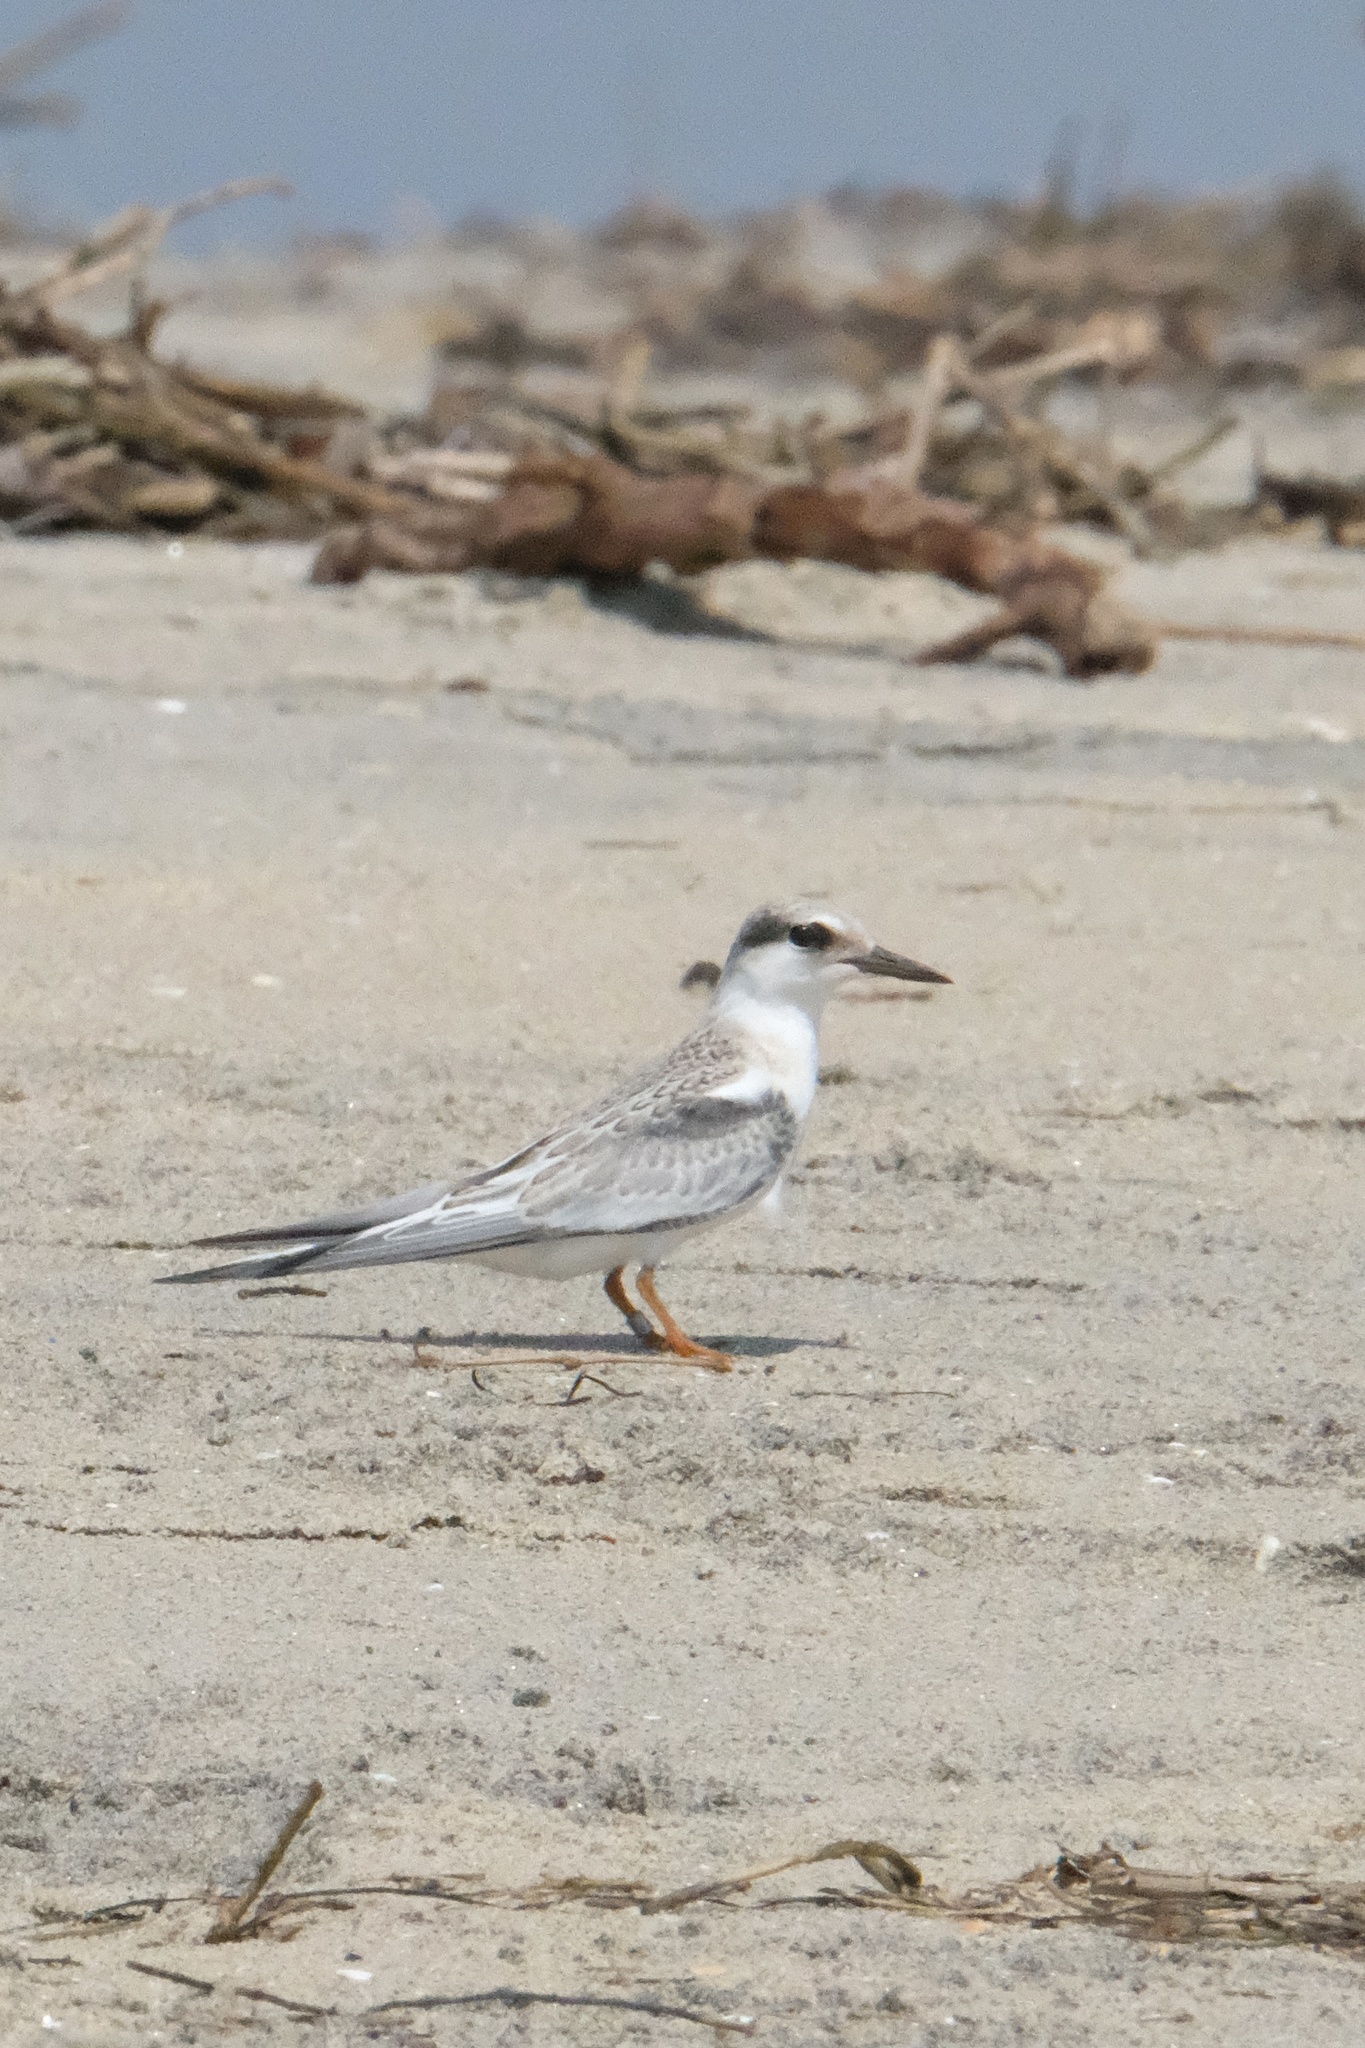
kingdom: Animalia
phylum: Chordata
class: Aves
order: Charadriiformes
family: Laridae
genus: Sternula
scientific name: Sternula antillarum
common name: Least tern
